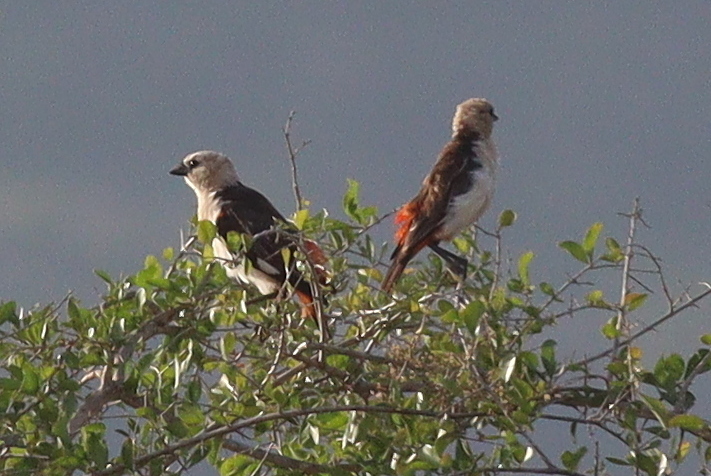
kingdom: Animalia
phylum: Chordata
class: Aves
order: Passeriformes
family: Ploceidae
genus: Dinemellia
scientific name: Dinemellia dinemelli
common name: White-headed buffalo weaver
